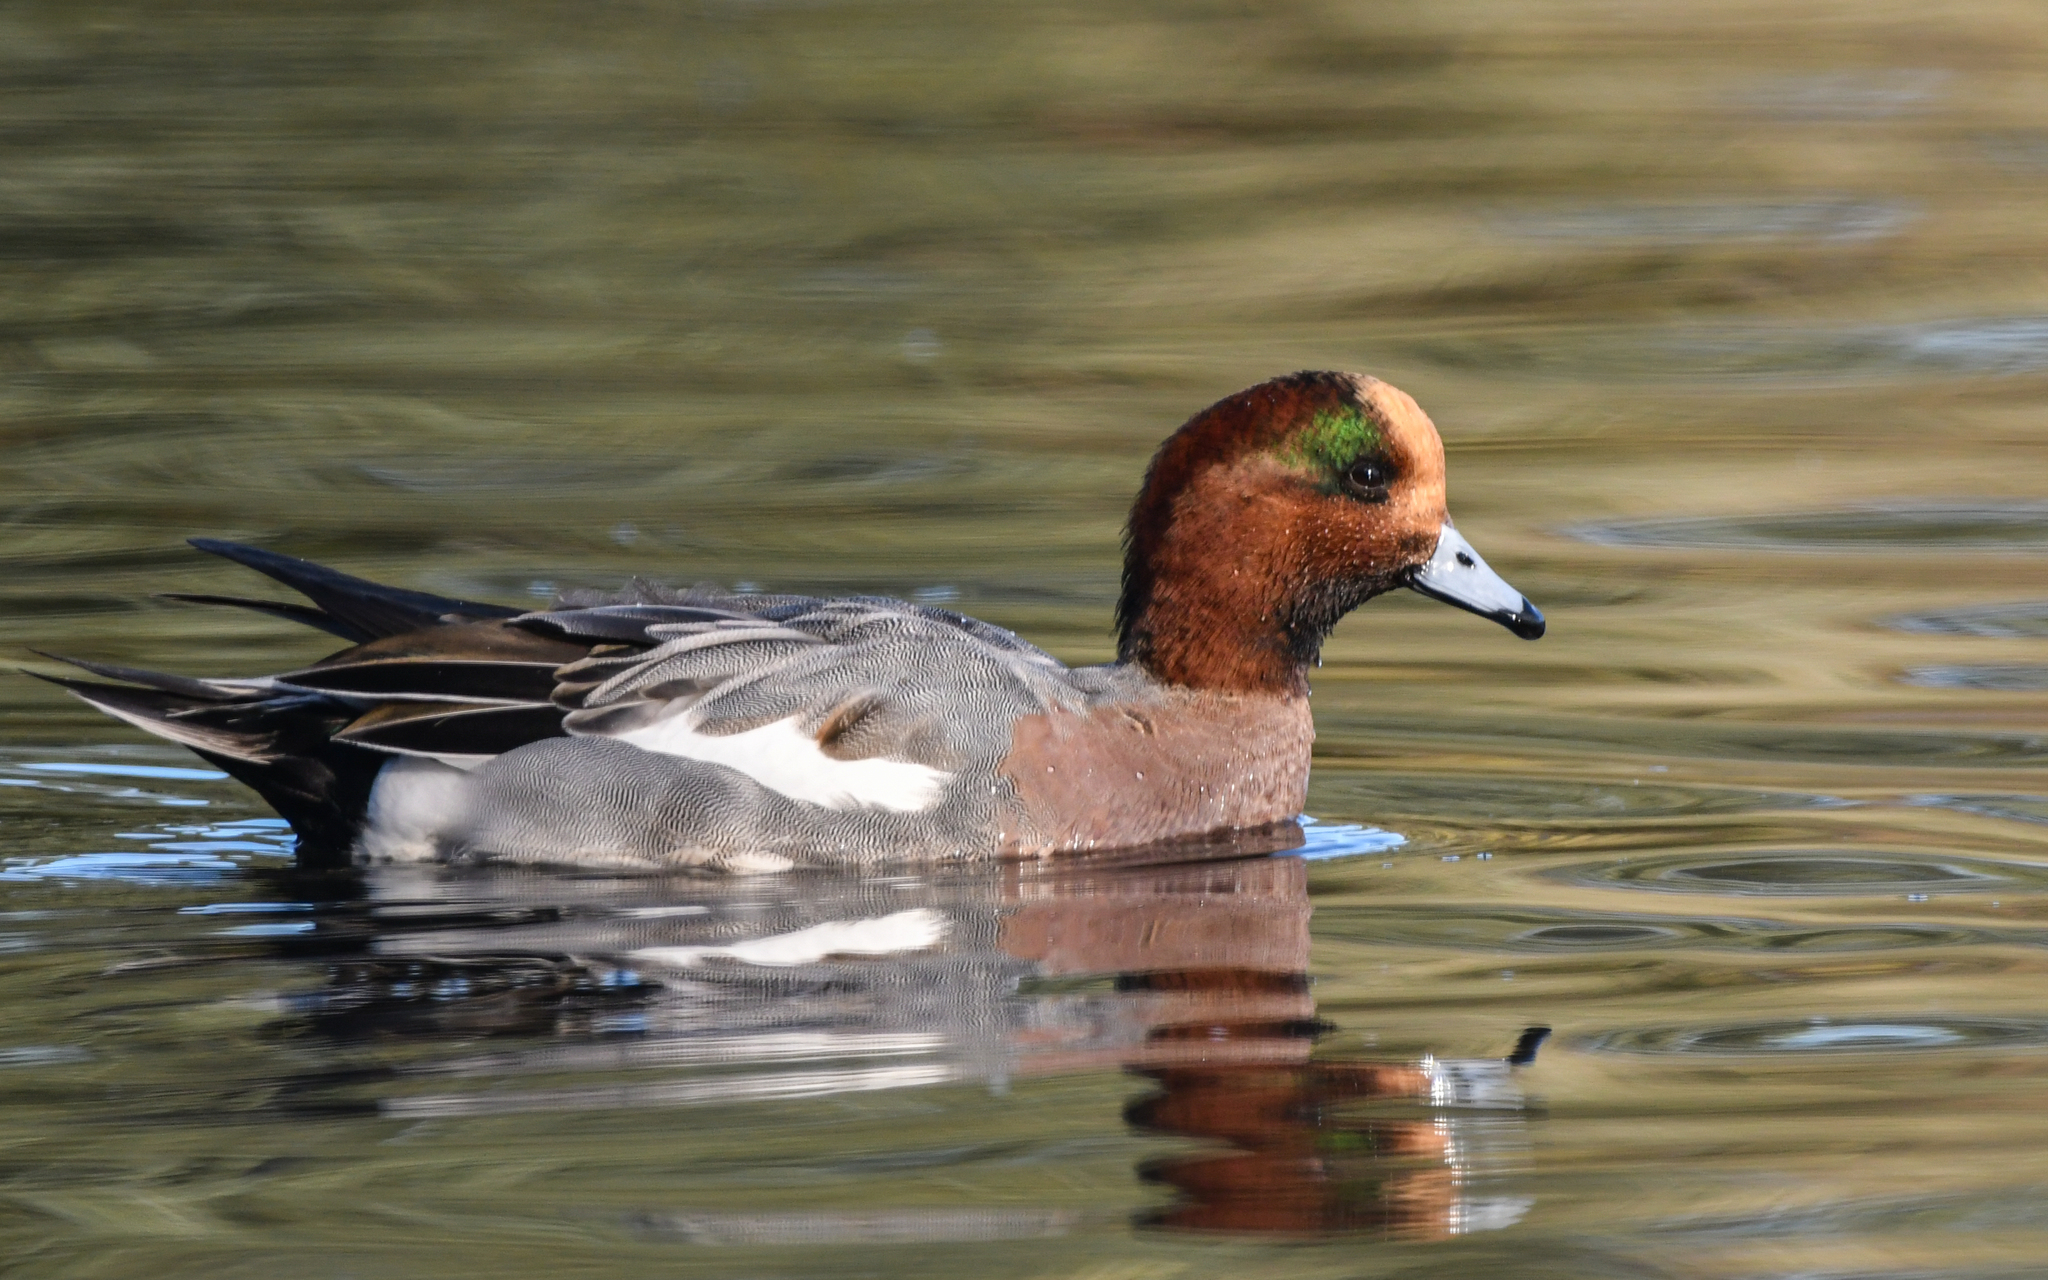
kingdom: Animalia
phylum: Chordata
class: Aves
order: Anseriformes
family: Anatidae
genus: Mareca
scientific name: Mareca penelope
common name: Eurasian wigeon
